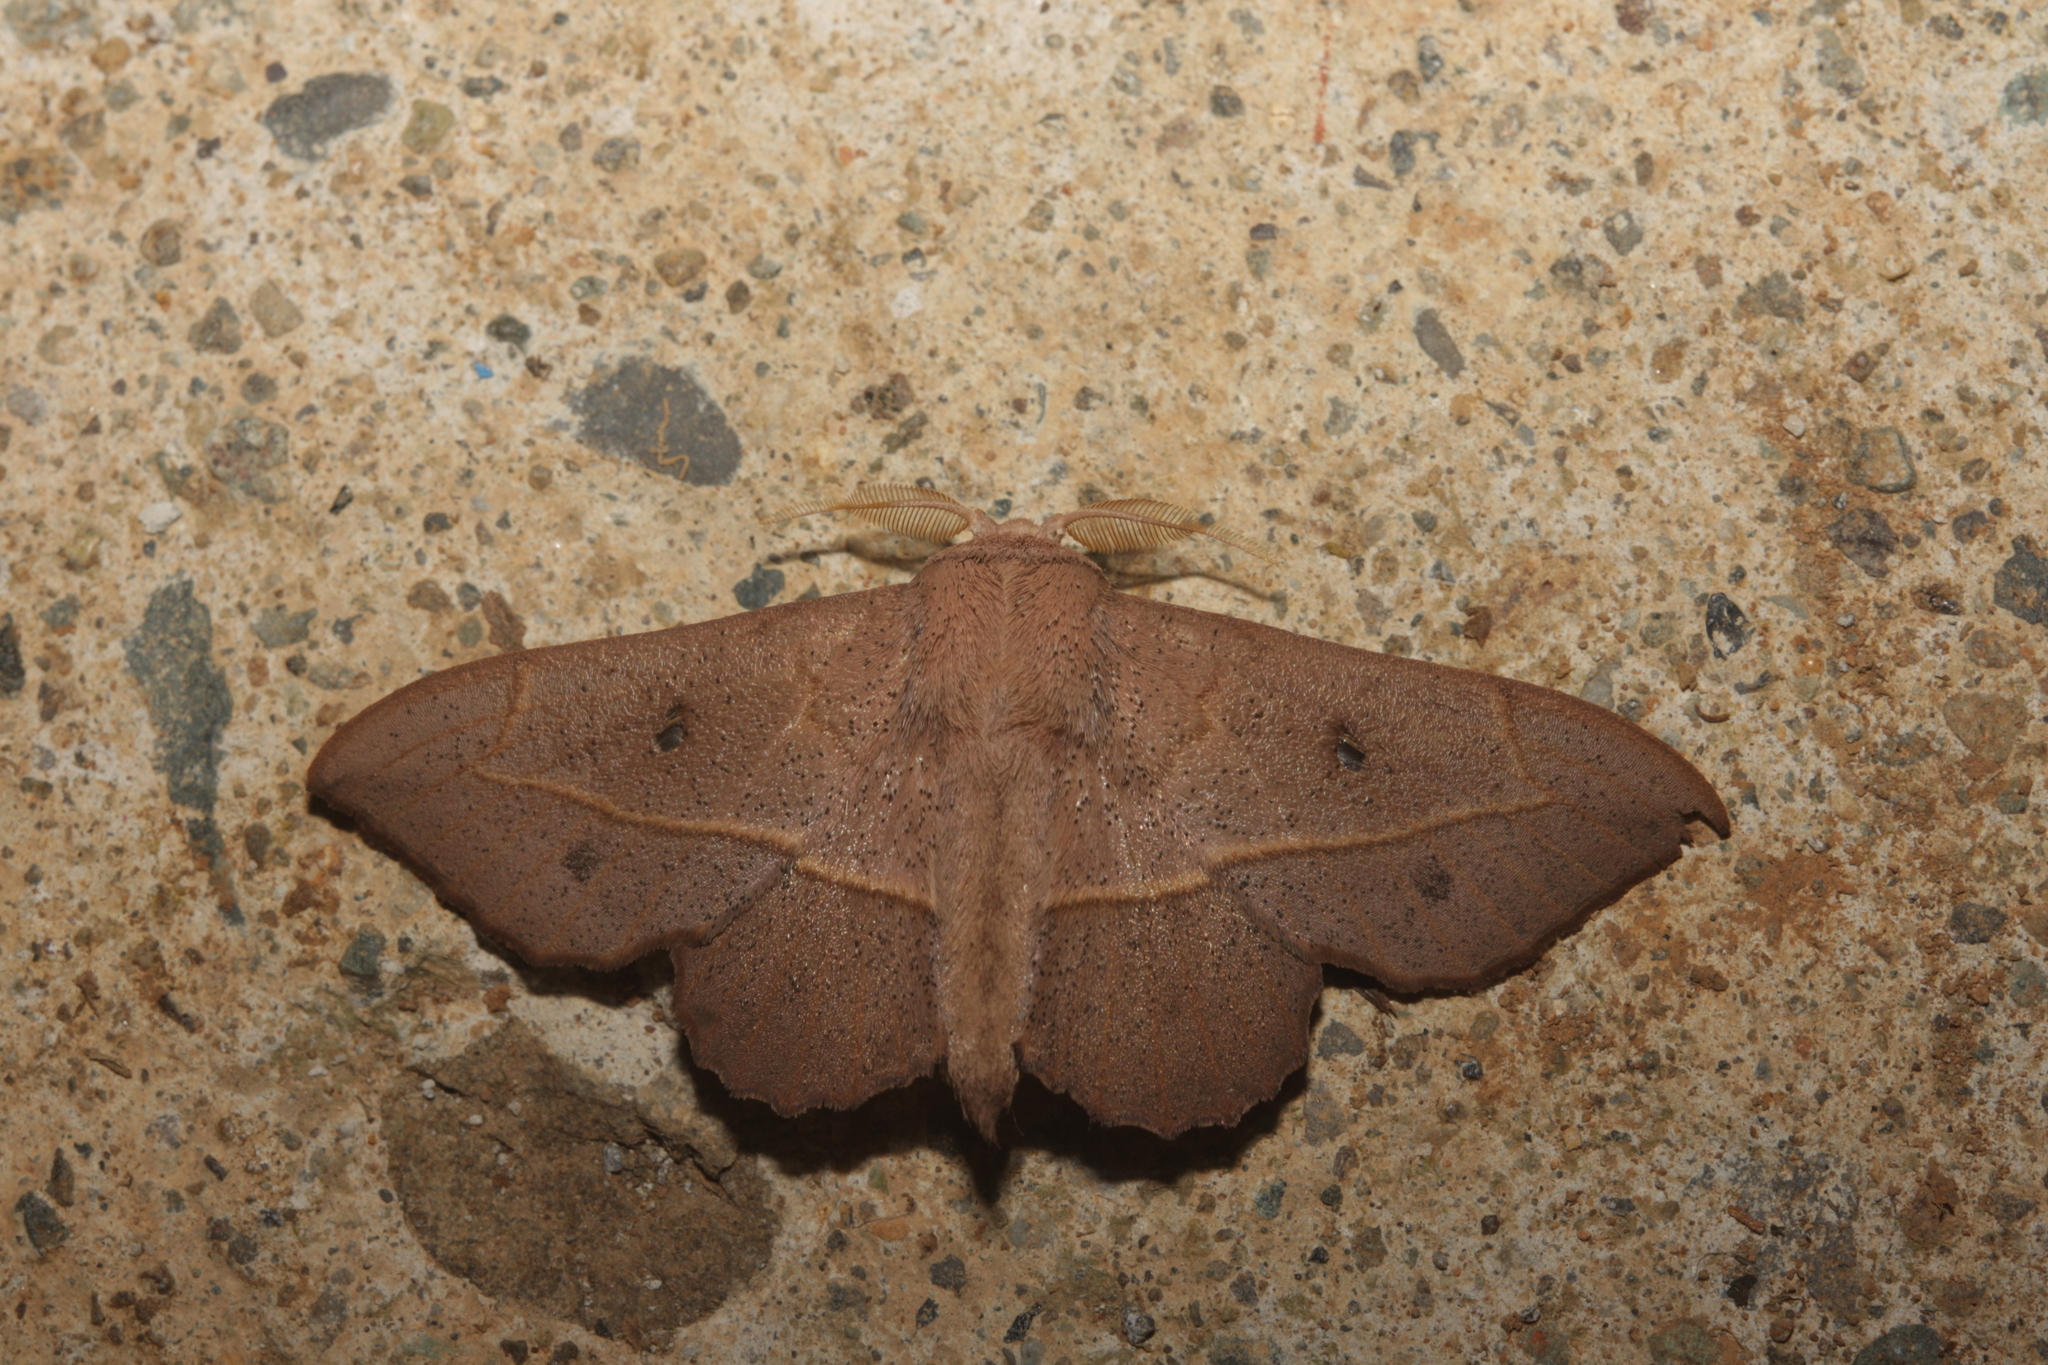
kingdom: Animalia
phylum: Arthropoda
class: Insecta
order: Lepidoptera
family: Mimallonidae
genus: Bedosia
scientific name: Bedosia ligina
